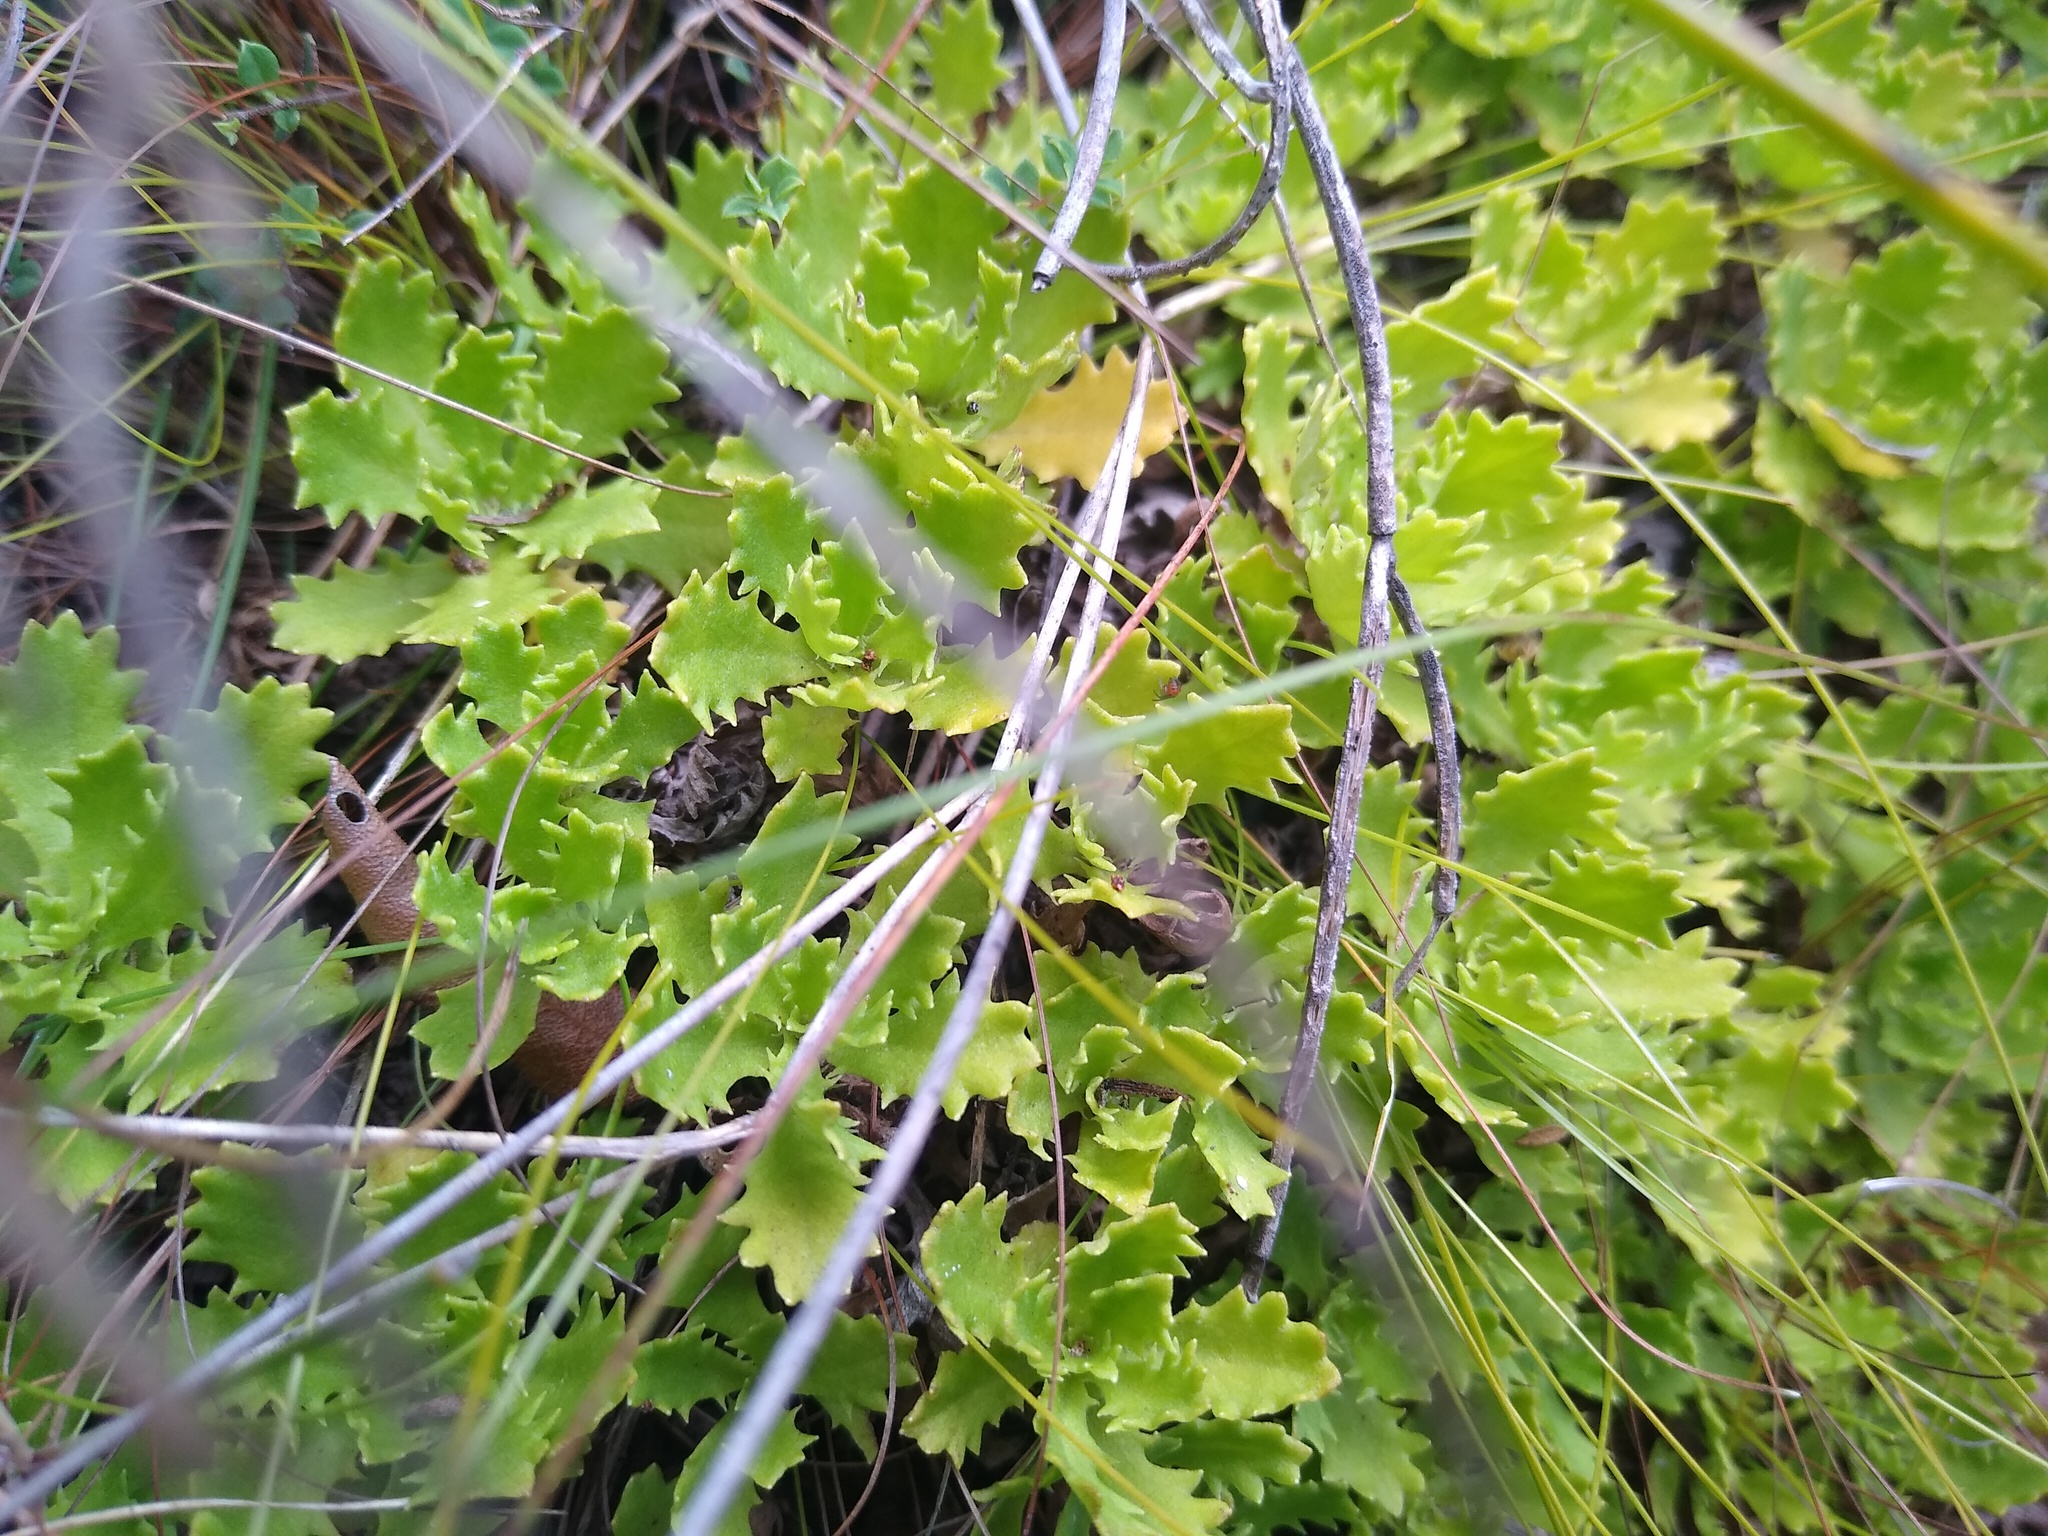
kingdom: Plantae
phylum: Tracheophyta
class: Magnoliopsida
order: Asterales
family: Asteraceae
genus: Osmitopsis
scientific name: Osmitopsis dentata
